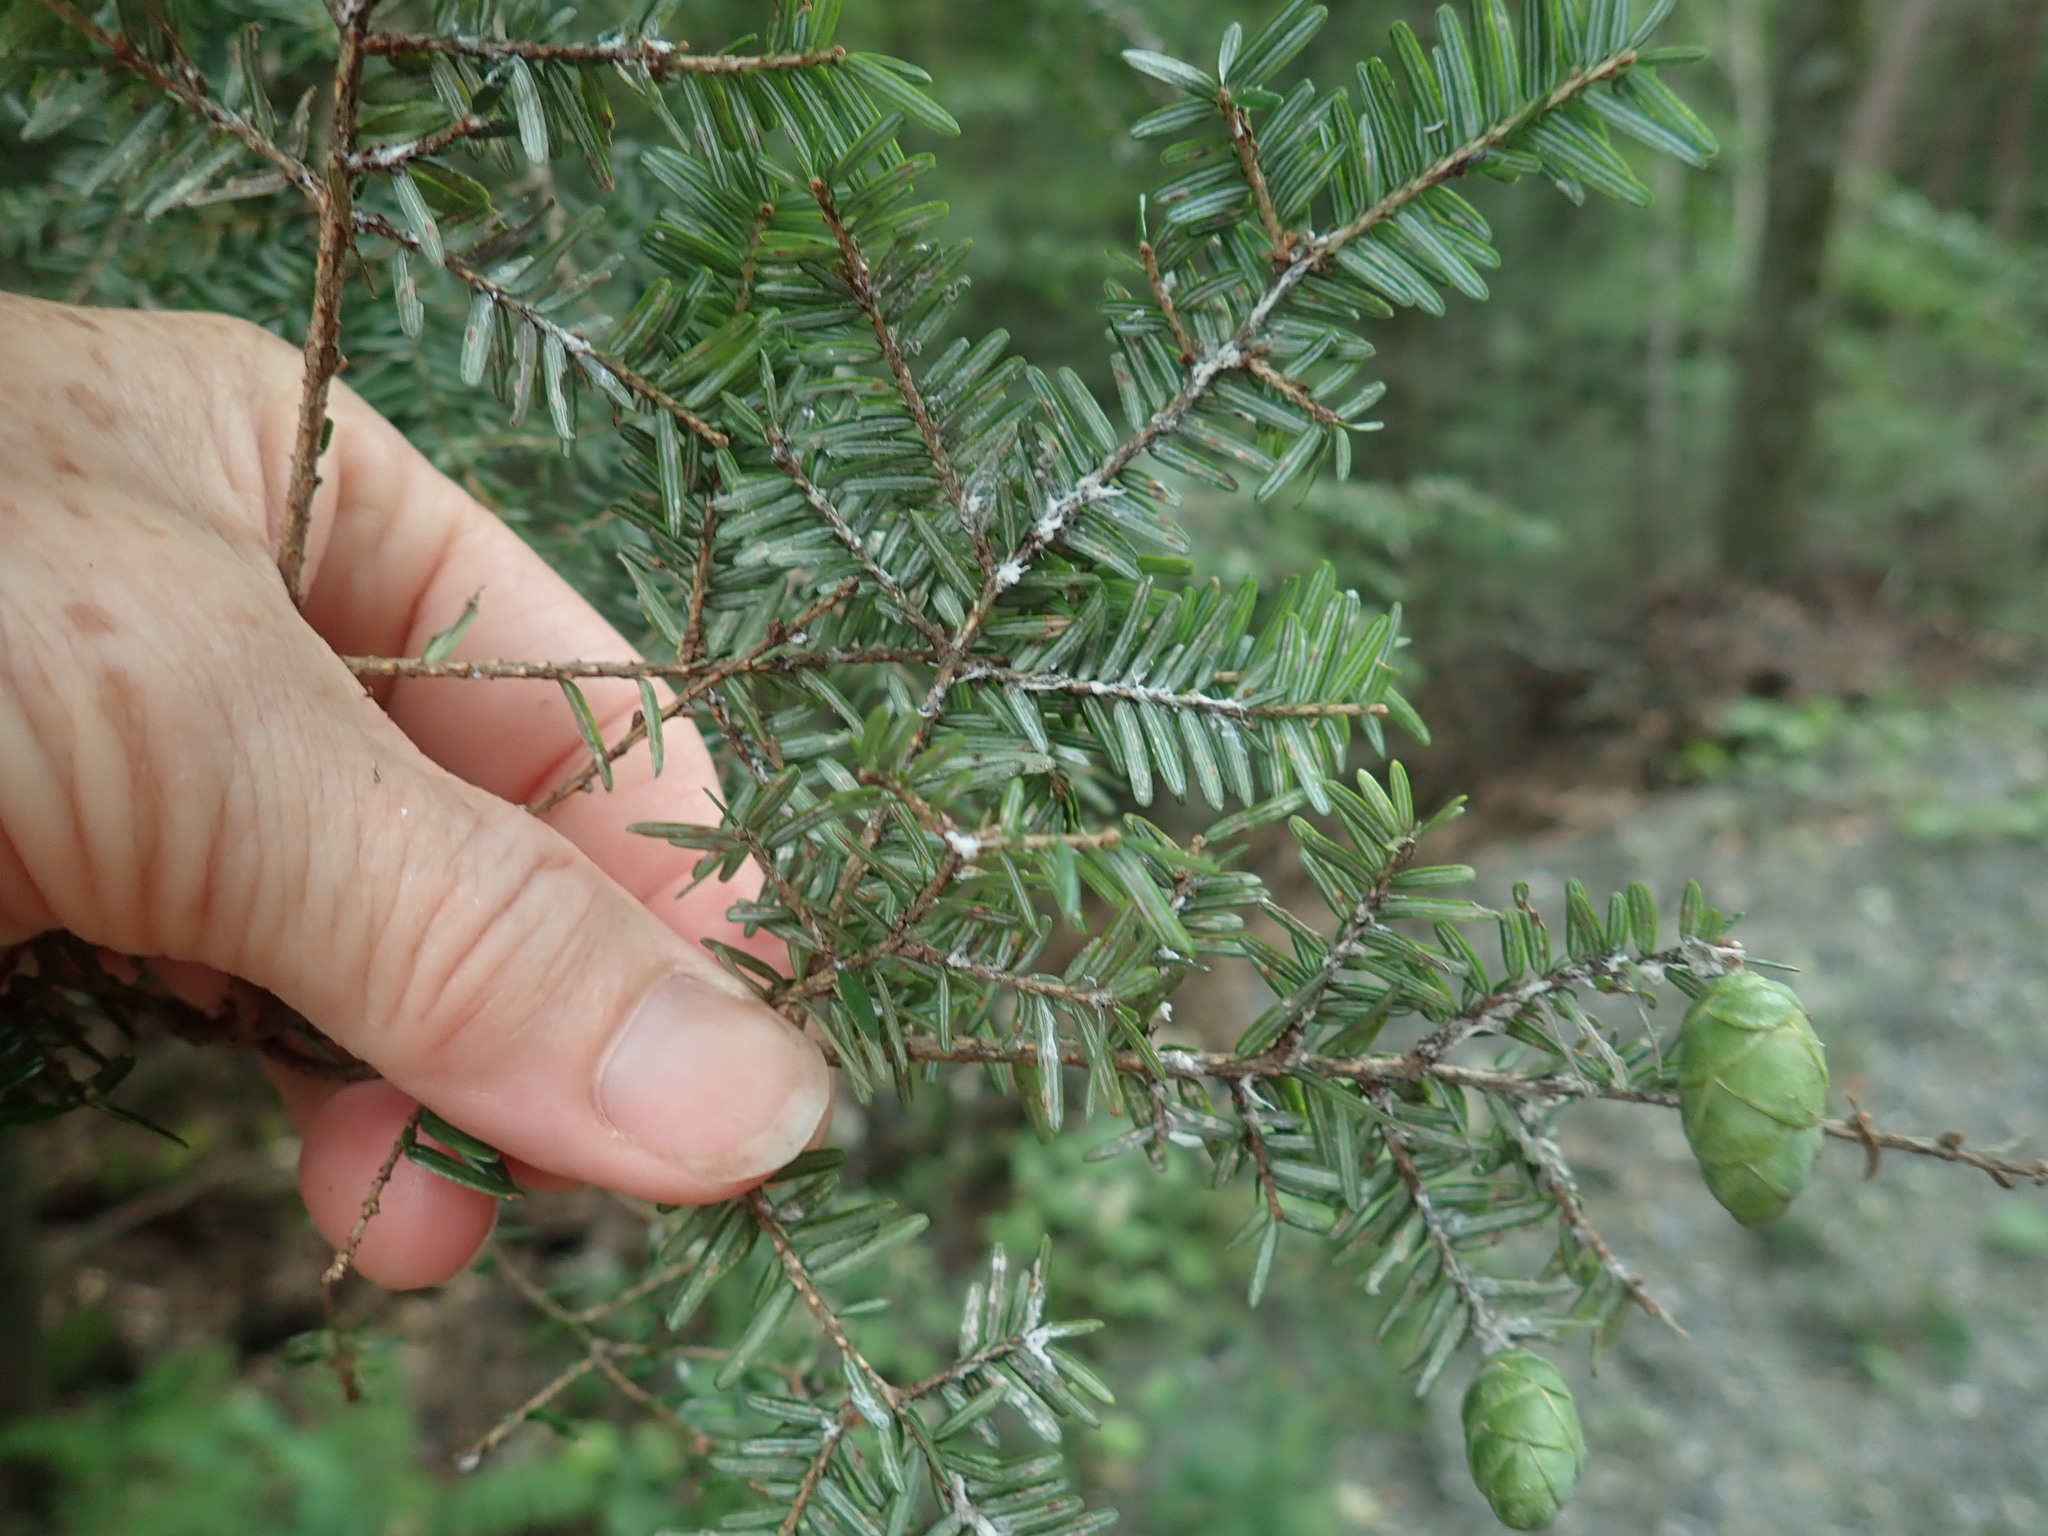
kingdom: Animalia
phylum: Arthropoda
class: Insecta
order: Hemiptera
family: Adelgidae
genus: Adelges
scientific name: Adelges tsugae
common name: Hemlock woolly adelgid
